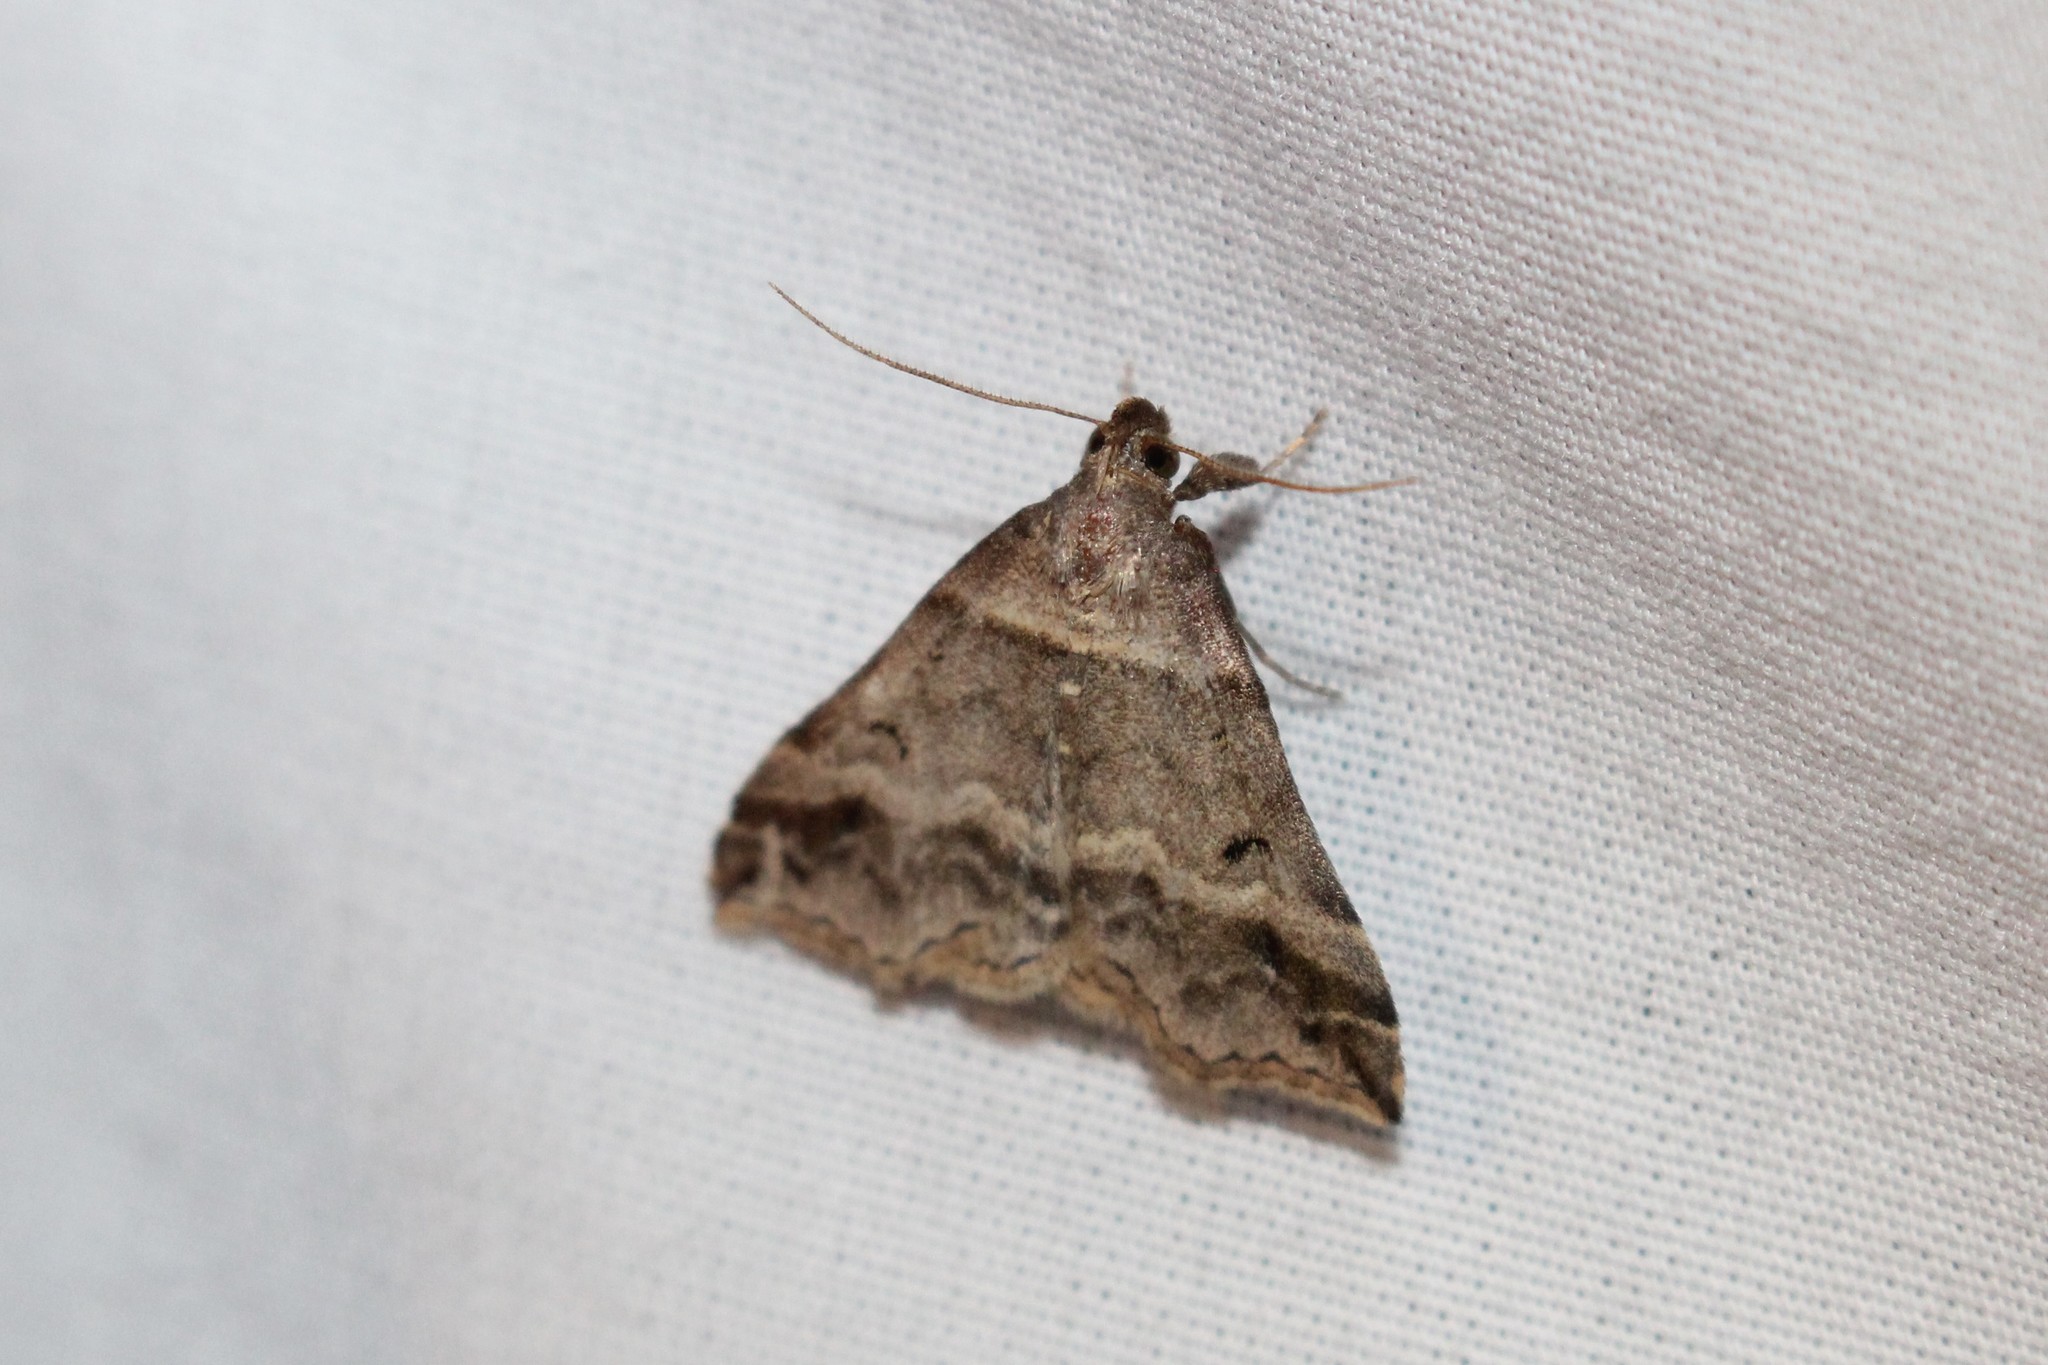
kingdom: Animalia
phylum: Arthropoda
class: Insecta
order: Lepidoptera
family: Erebidae
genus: Phaeolita
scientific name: Phaeolita pyramusalis
